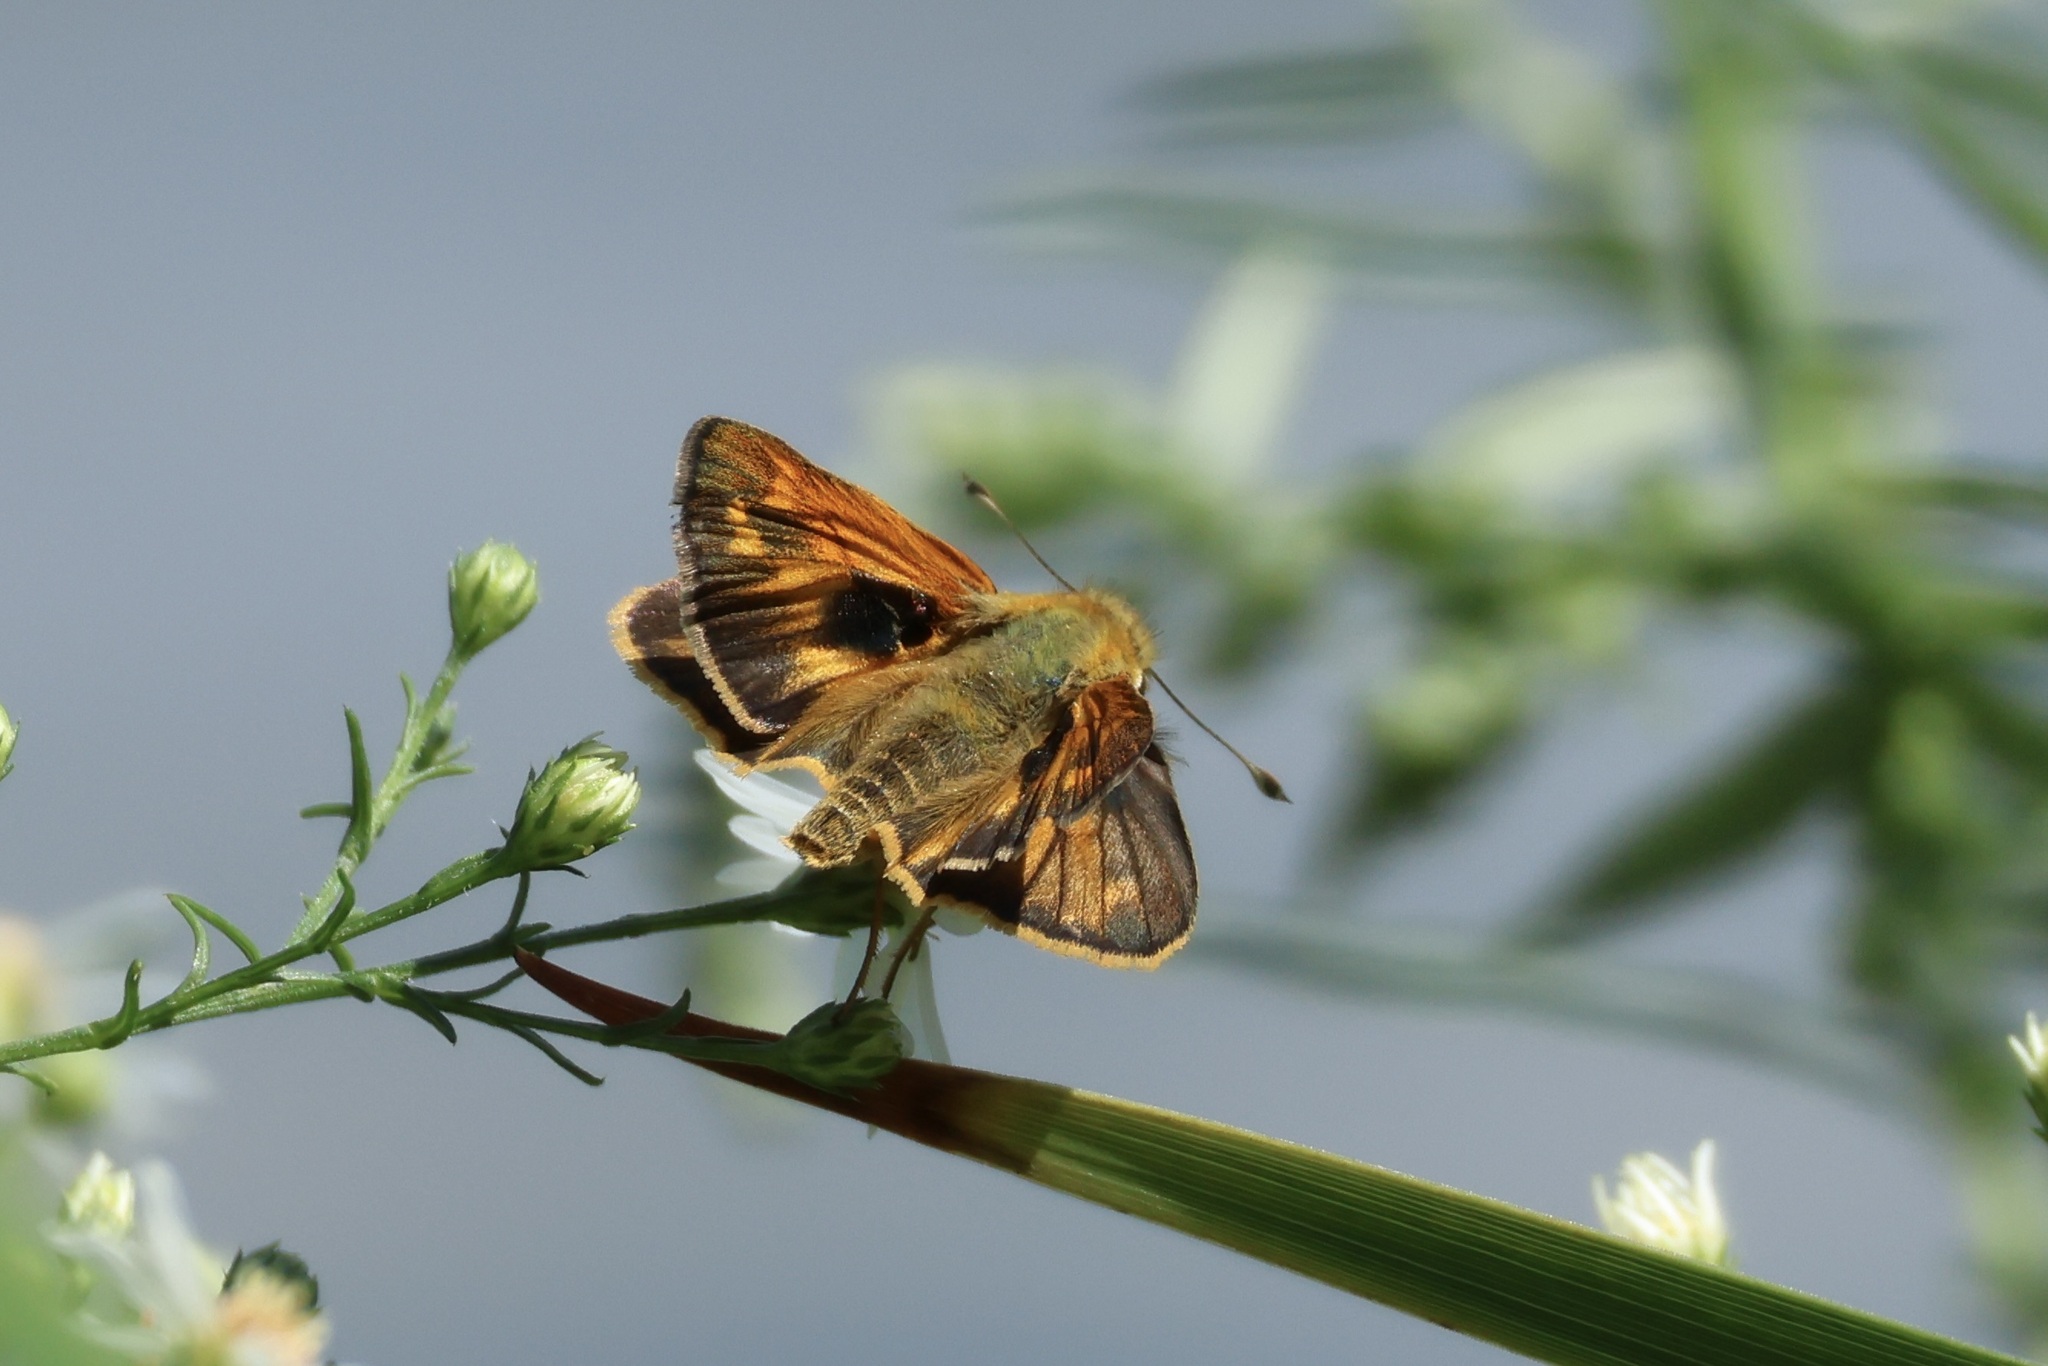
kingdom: Animalia
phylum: Arthropoda
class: Insecta
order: Lepidoptera
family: Hesperiidae
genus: Atalopedes
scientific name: Atalopedes
